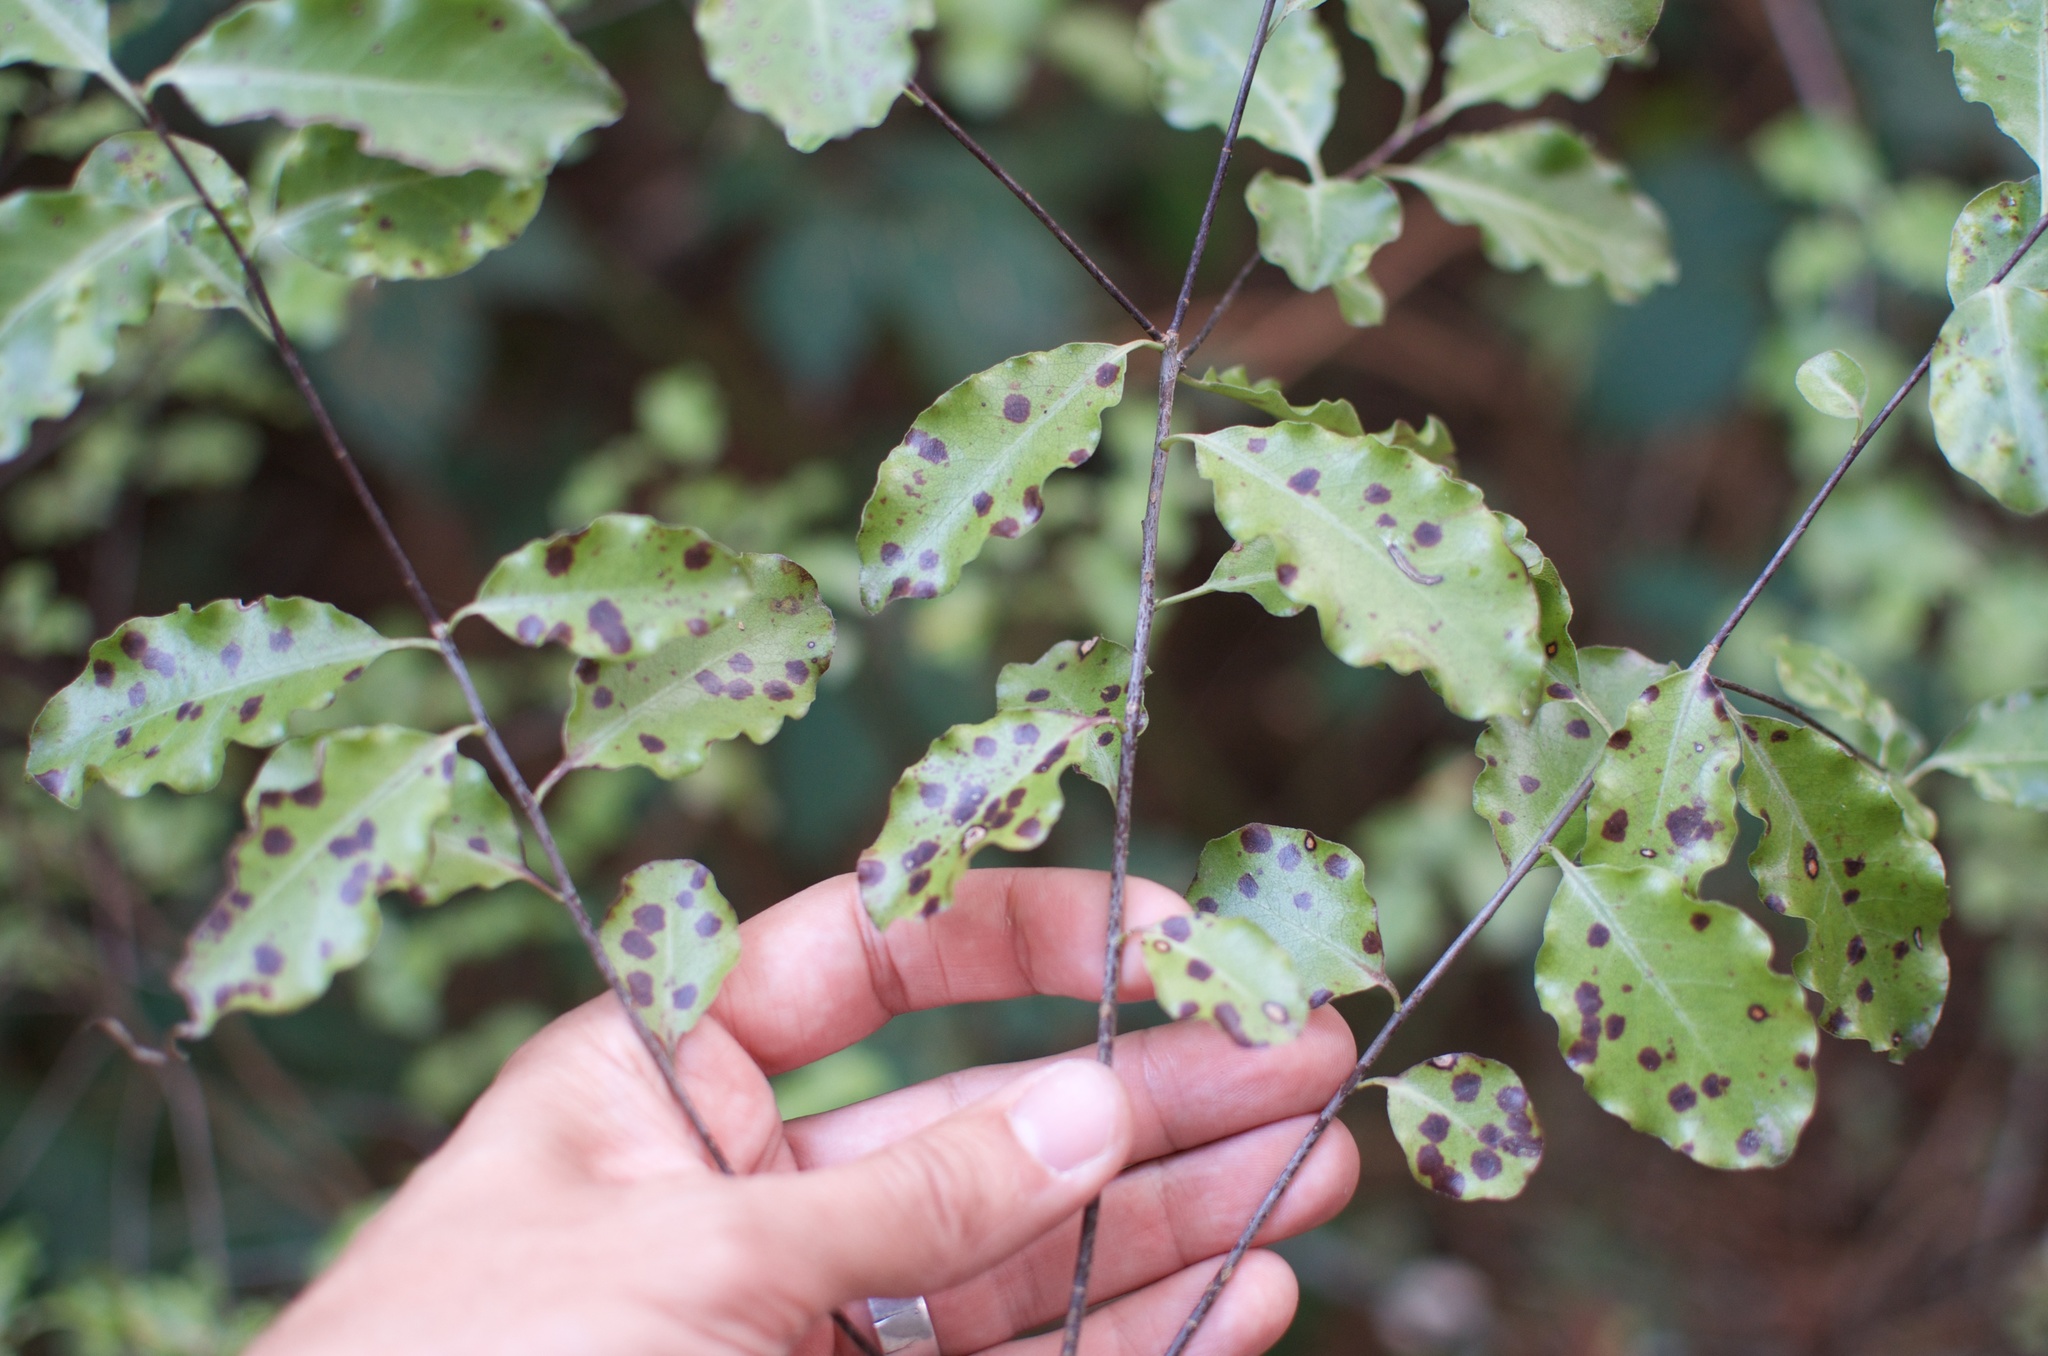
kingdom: Plantae
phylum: Tracheophyta
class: Magnoliopsida
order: Apiales
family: Pittosporaceae
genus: Pittosporum
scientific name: Pittosporum tenuifolium
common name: Kohuhu
